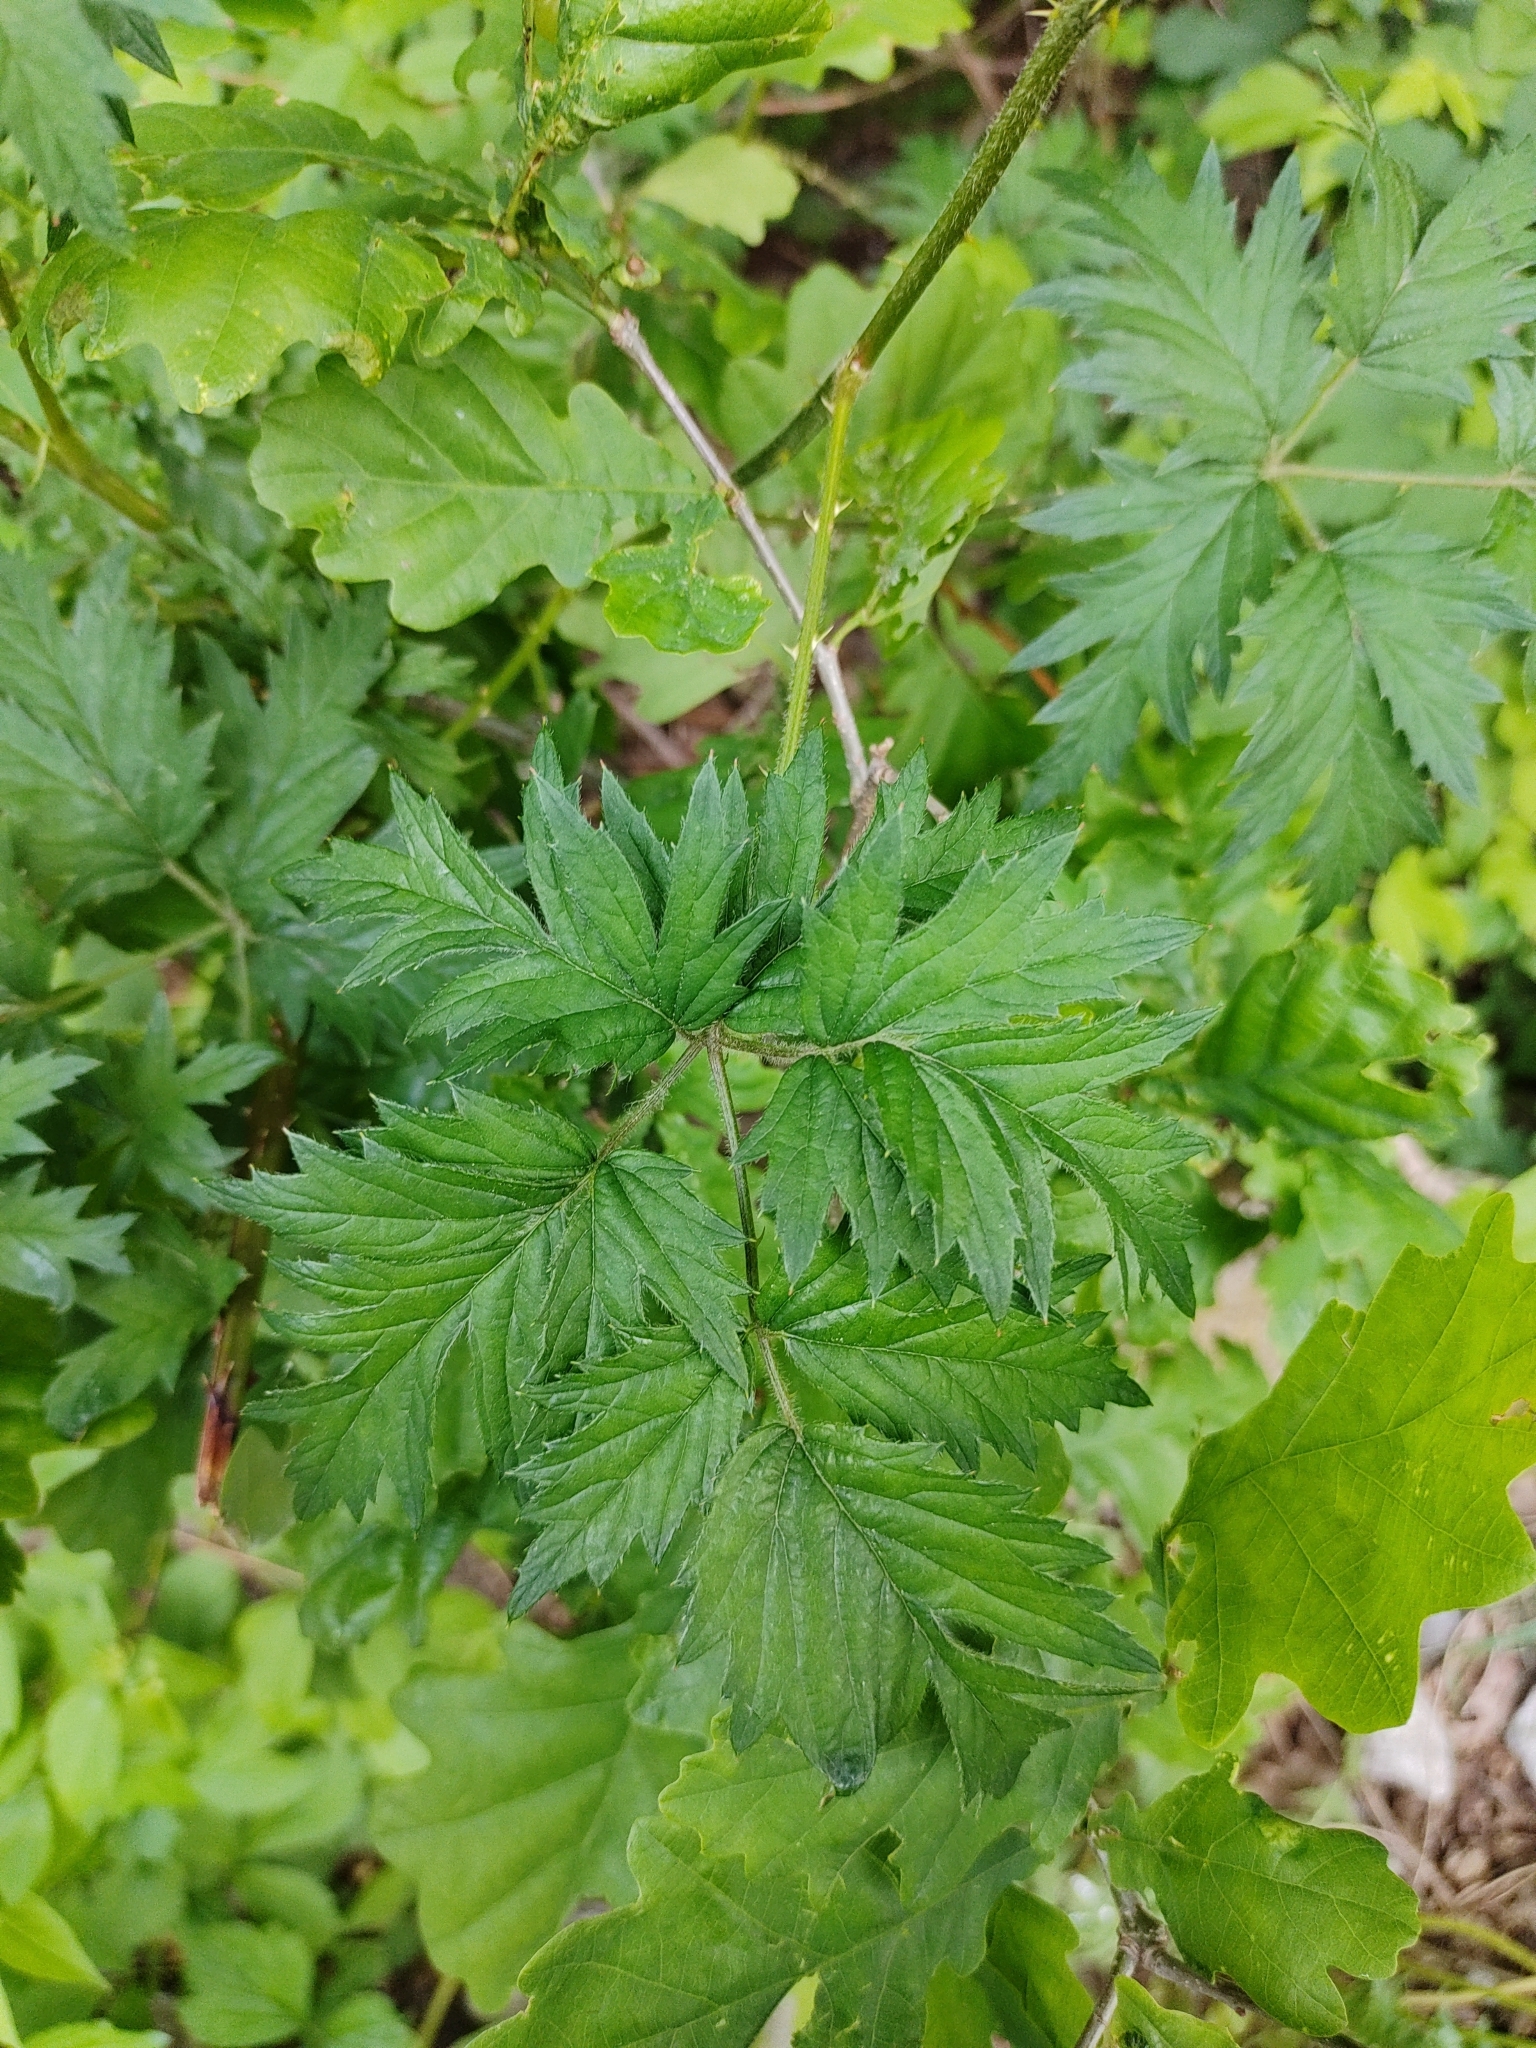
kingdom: Plantae
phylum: Tracheophyta
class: Magnoliopsida
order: Rosales
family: Rosaceae
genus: Rubus
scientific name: Rubus laciniatus
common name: Evergreen blackberry
